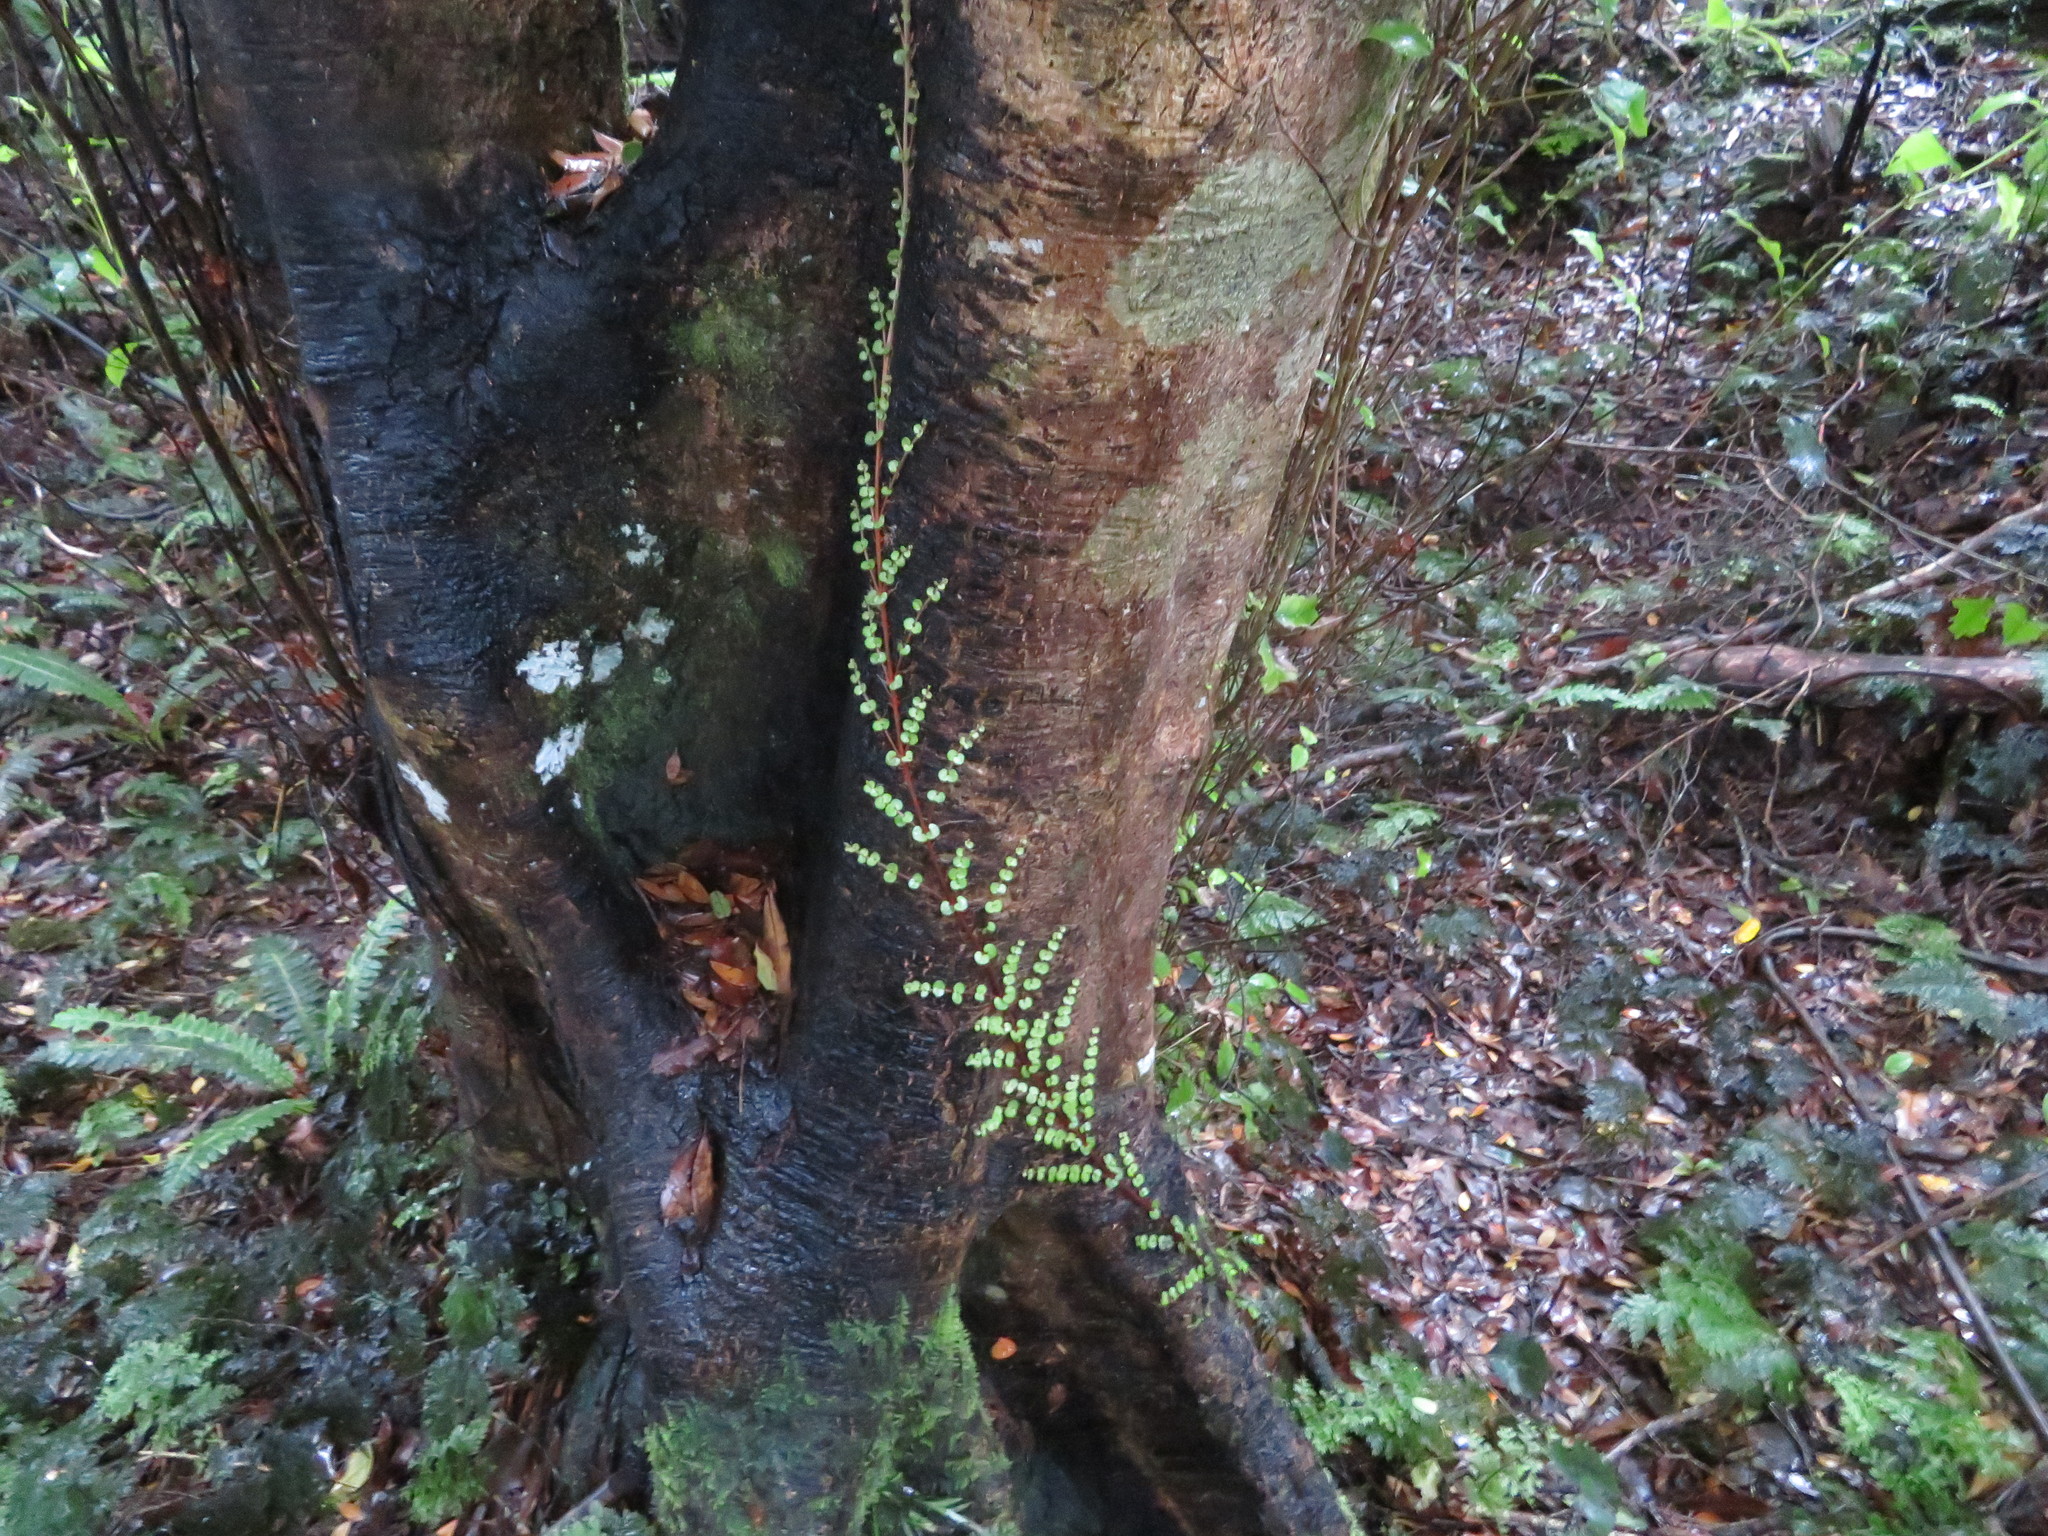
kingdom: Plantae
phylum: Tracheophyta
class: Magnoliopsida
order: Myrtales
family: Myrtaceae
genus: Metrosideros
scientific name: Metrosideros perforata
